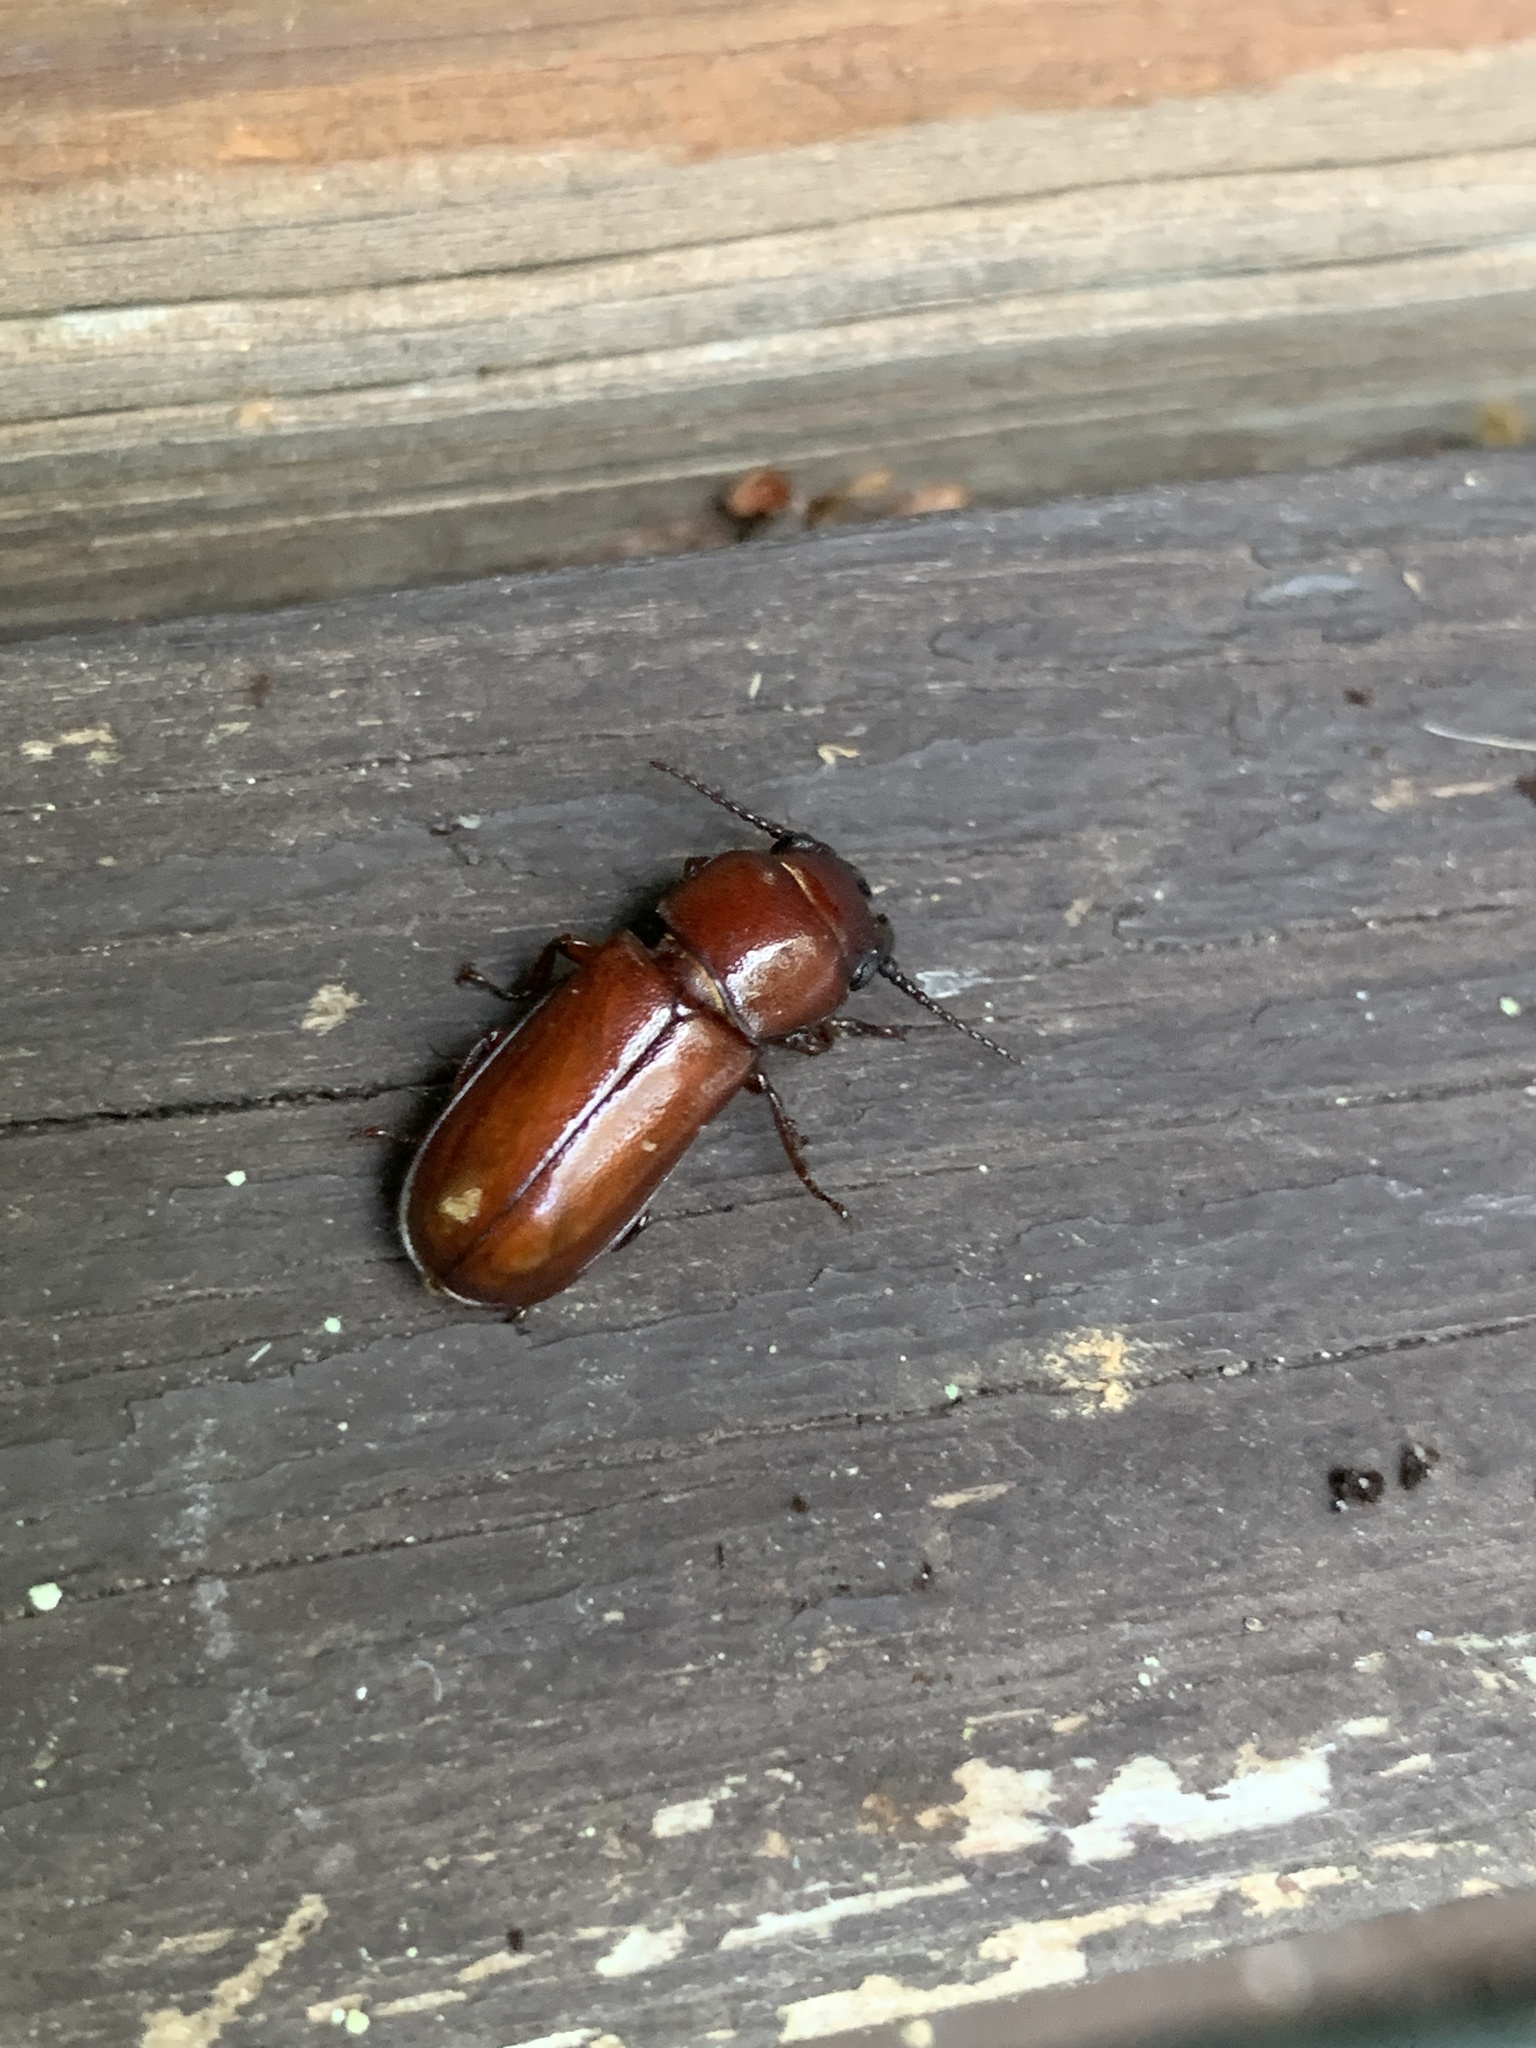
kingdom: Animalia
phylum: Arthropoda
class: Insecta
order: Coleoptera
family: Cerambycidae
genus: Neandra
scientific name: Neandra brunnea
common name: Pole borer
